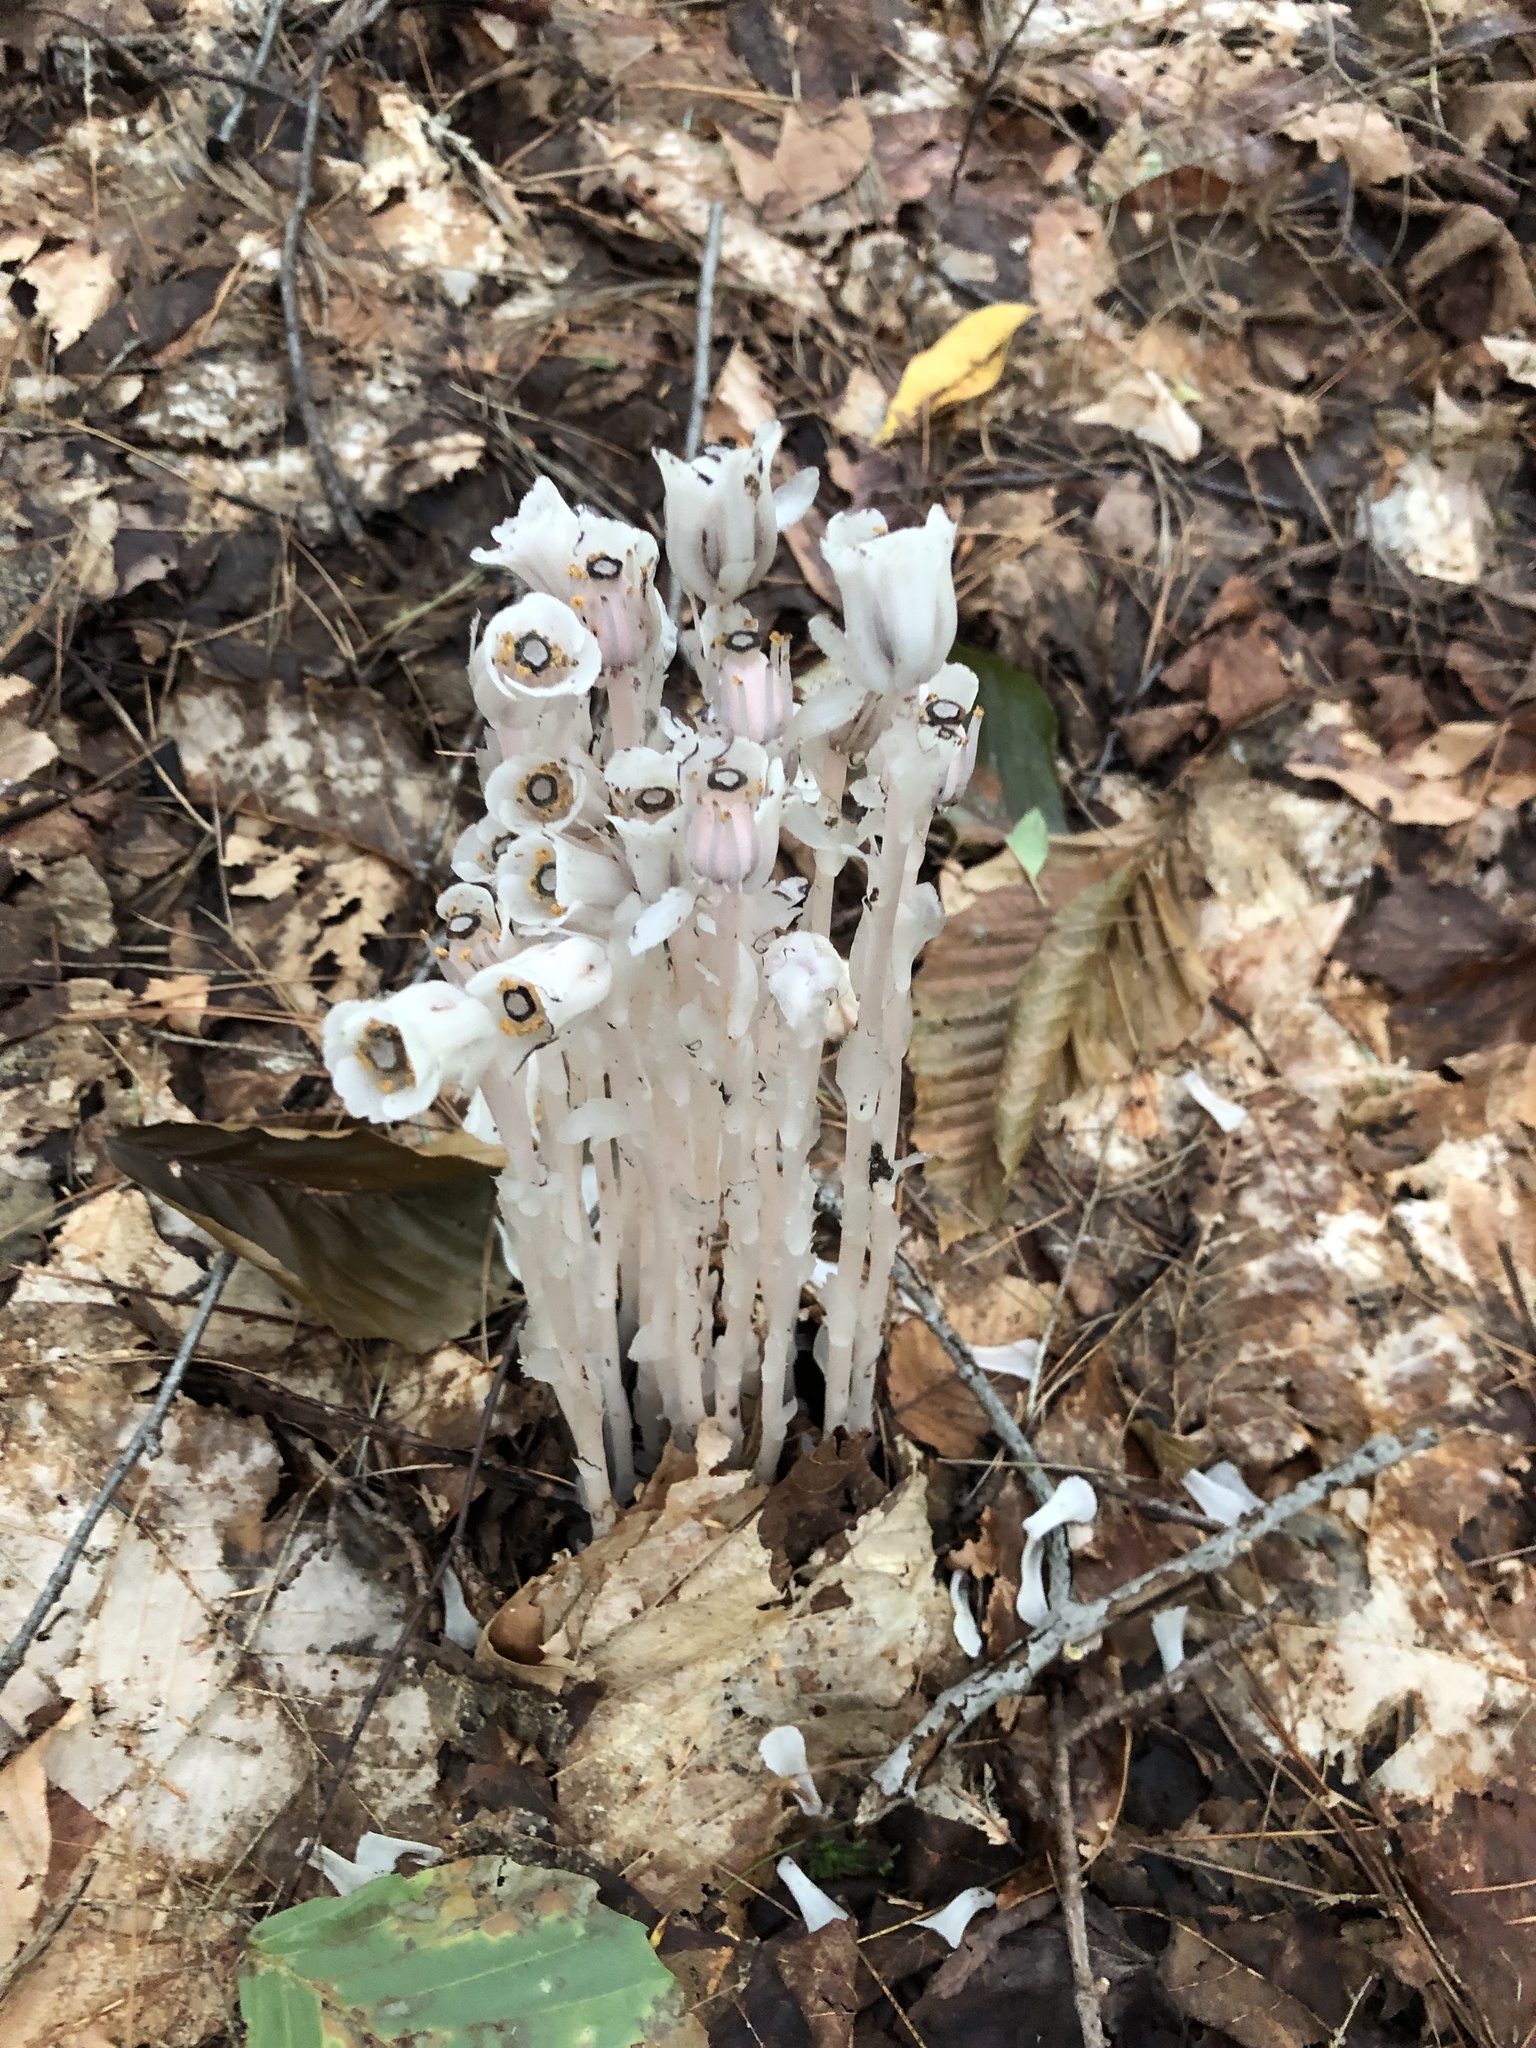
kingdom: Plantae
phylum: Tracheophyta
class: Magnoliopsida
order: Ericales
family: Ericaceae
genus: Monotropa
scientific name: Monotropa uniflora
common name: Convulsion root
